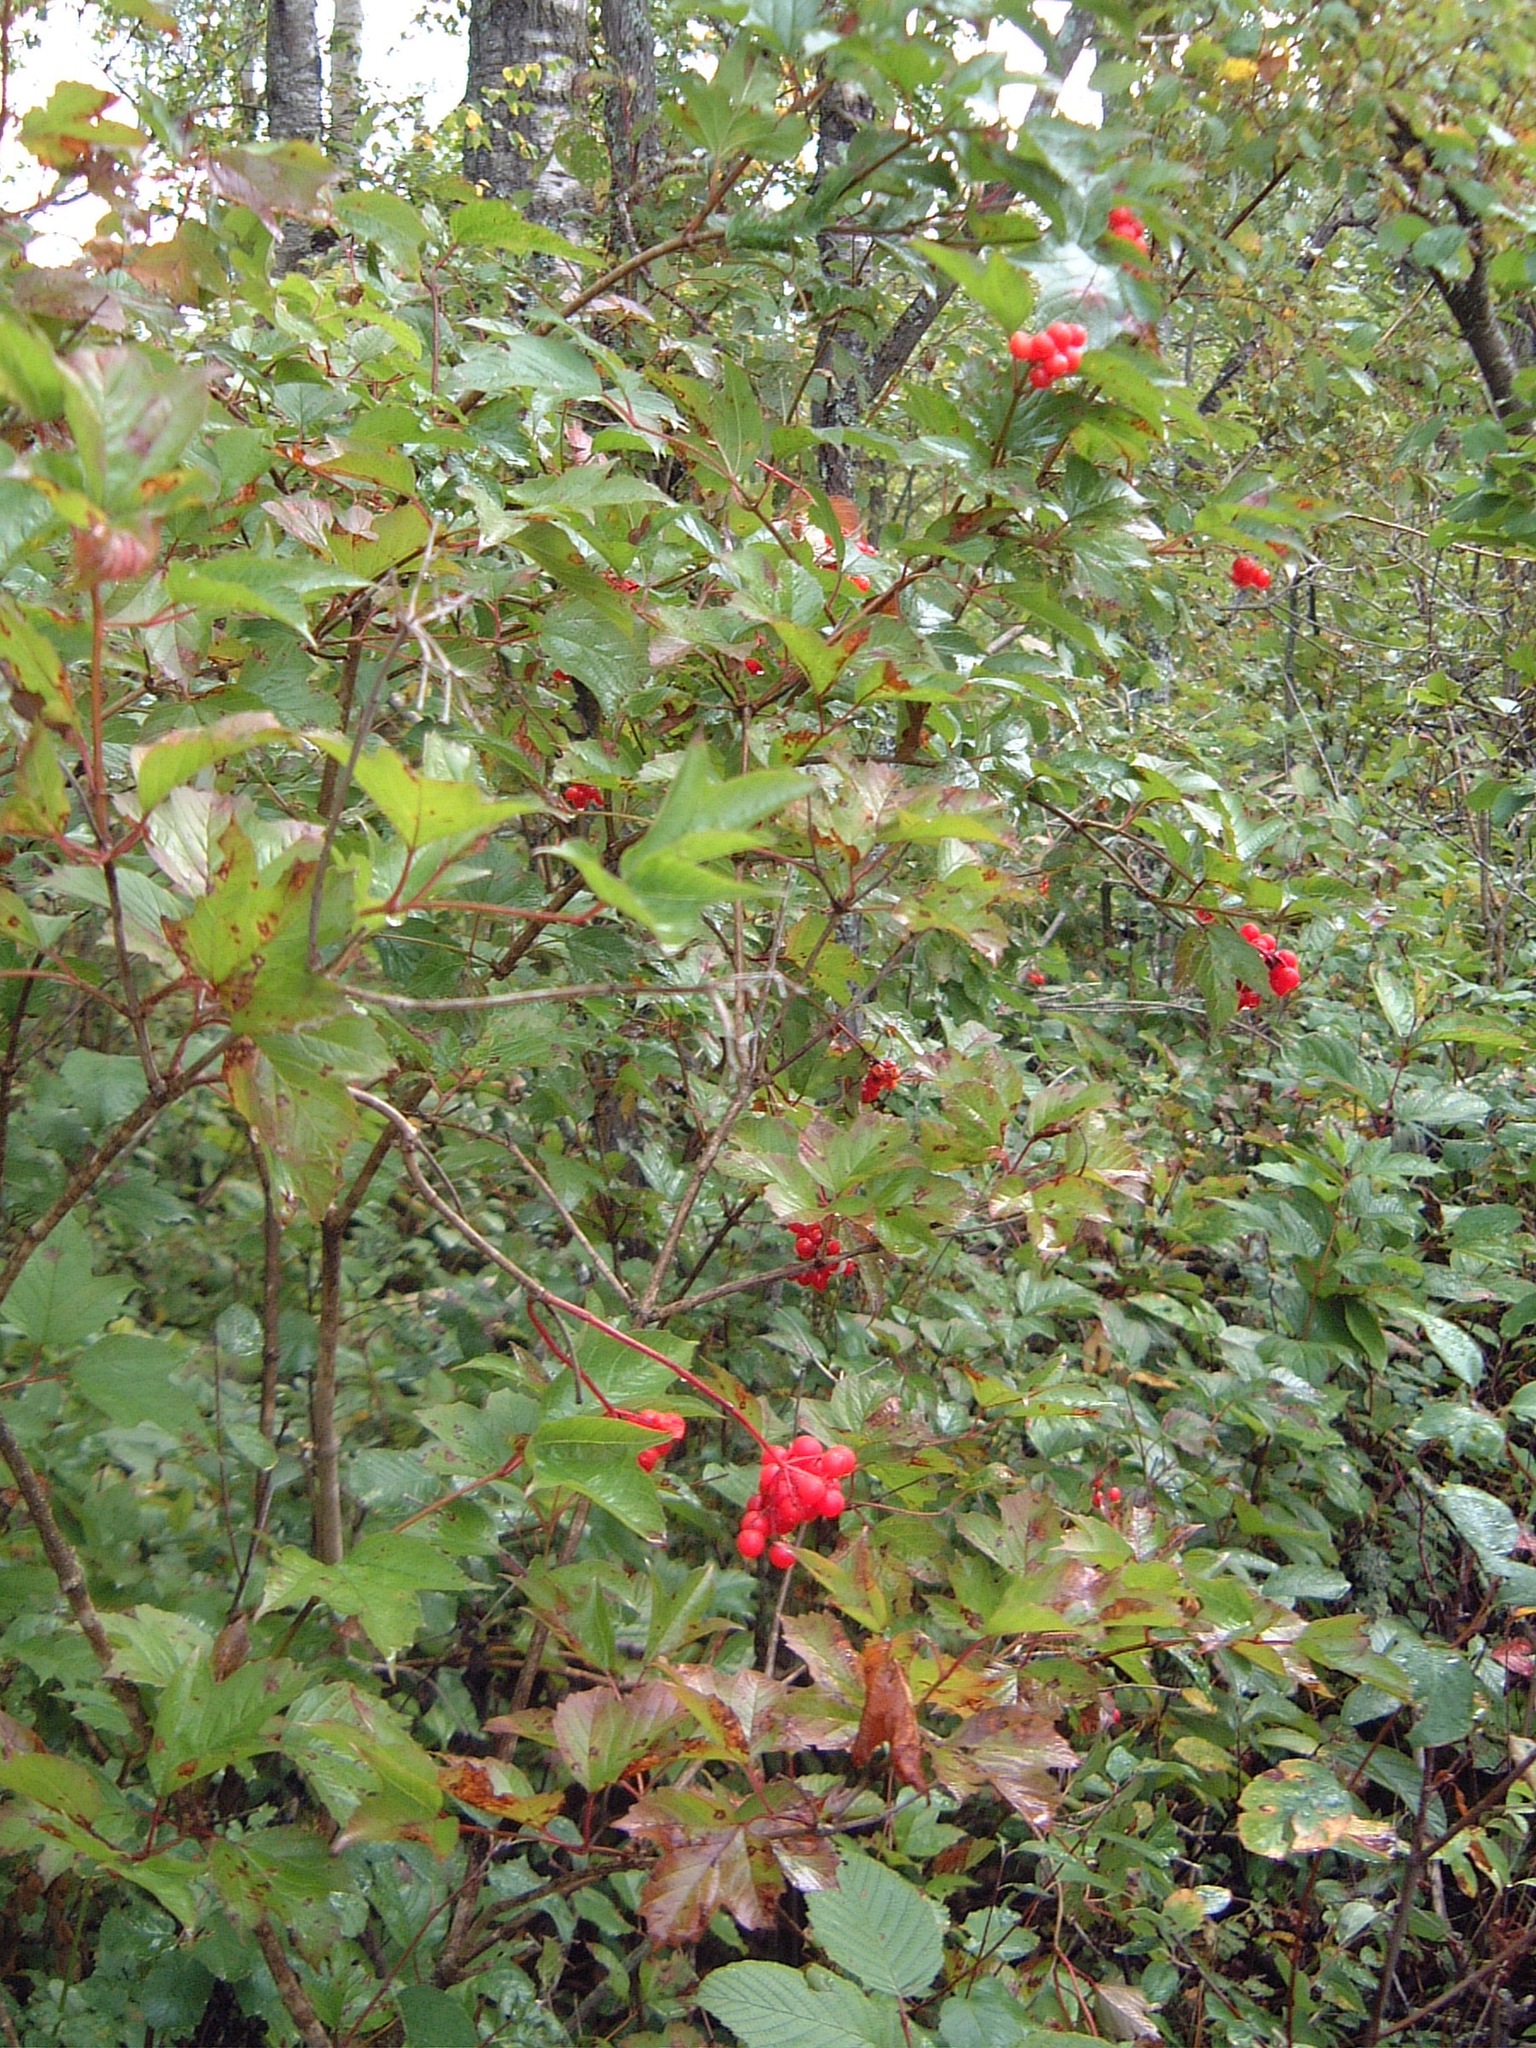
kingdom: Plantae
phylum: Tracheophyta
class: Magnoliopsida
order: Dipsacales
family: Viburnaceae
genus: Viburnum
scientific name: Viburnum trilobum
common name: American cranberrybush
